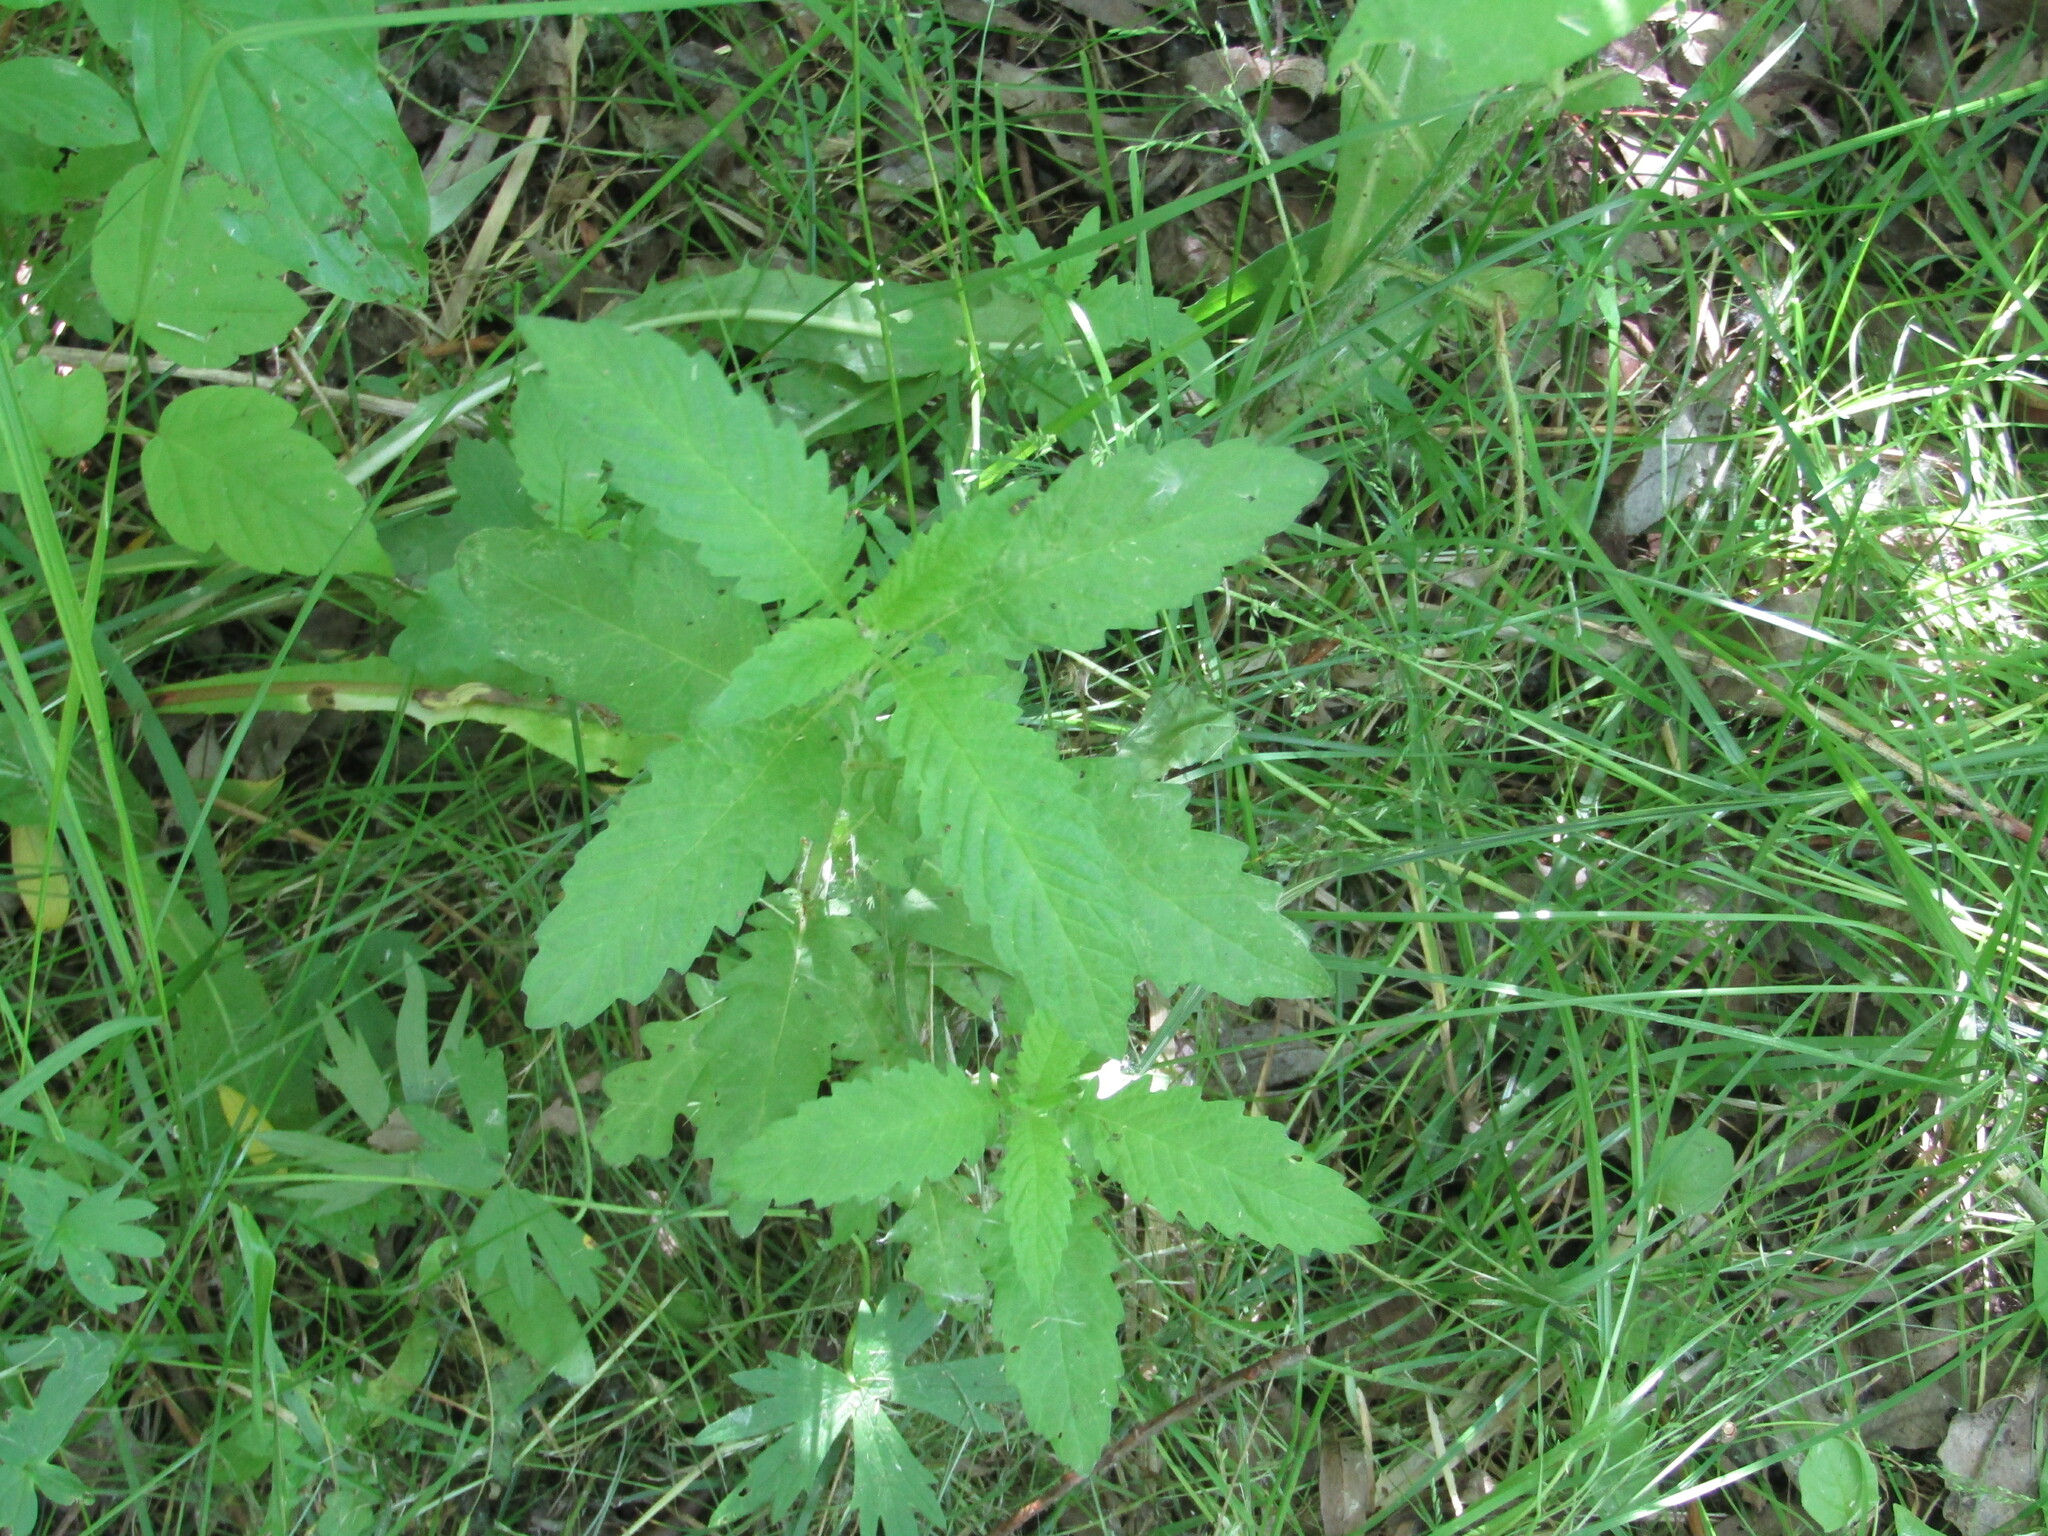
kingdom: Plantae
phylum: Tracheophyta
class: Magnoliopsida
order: Lamiales
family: Lamiaceae
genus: Lycopus
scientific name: Lycopus europaeus
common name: European bugleweed
